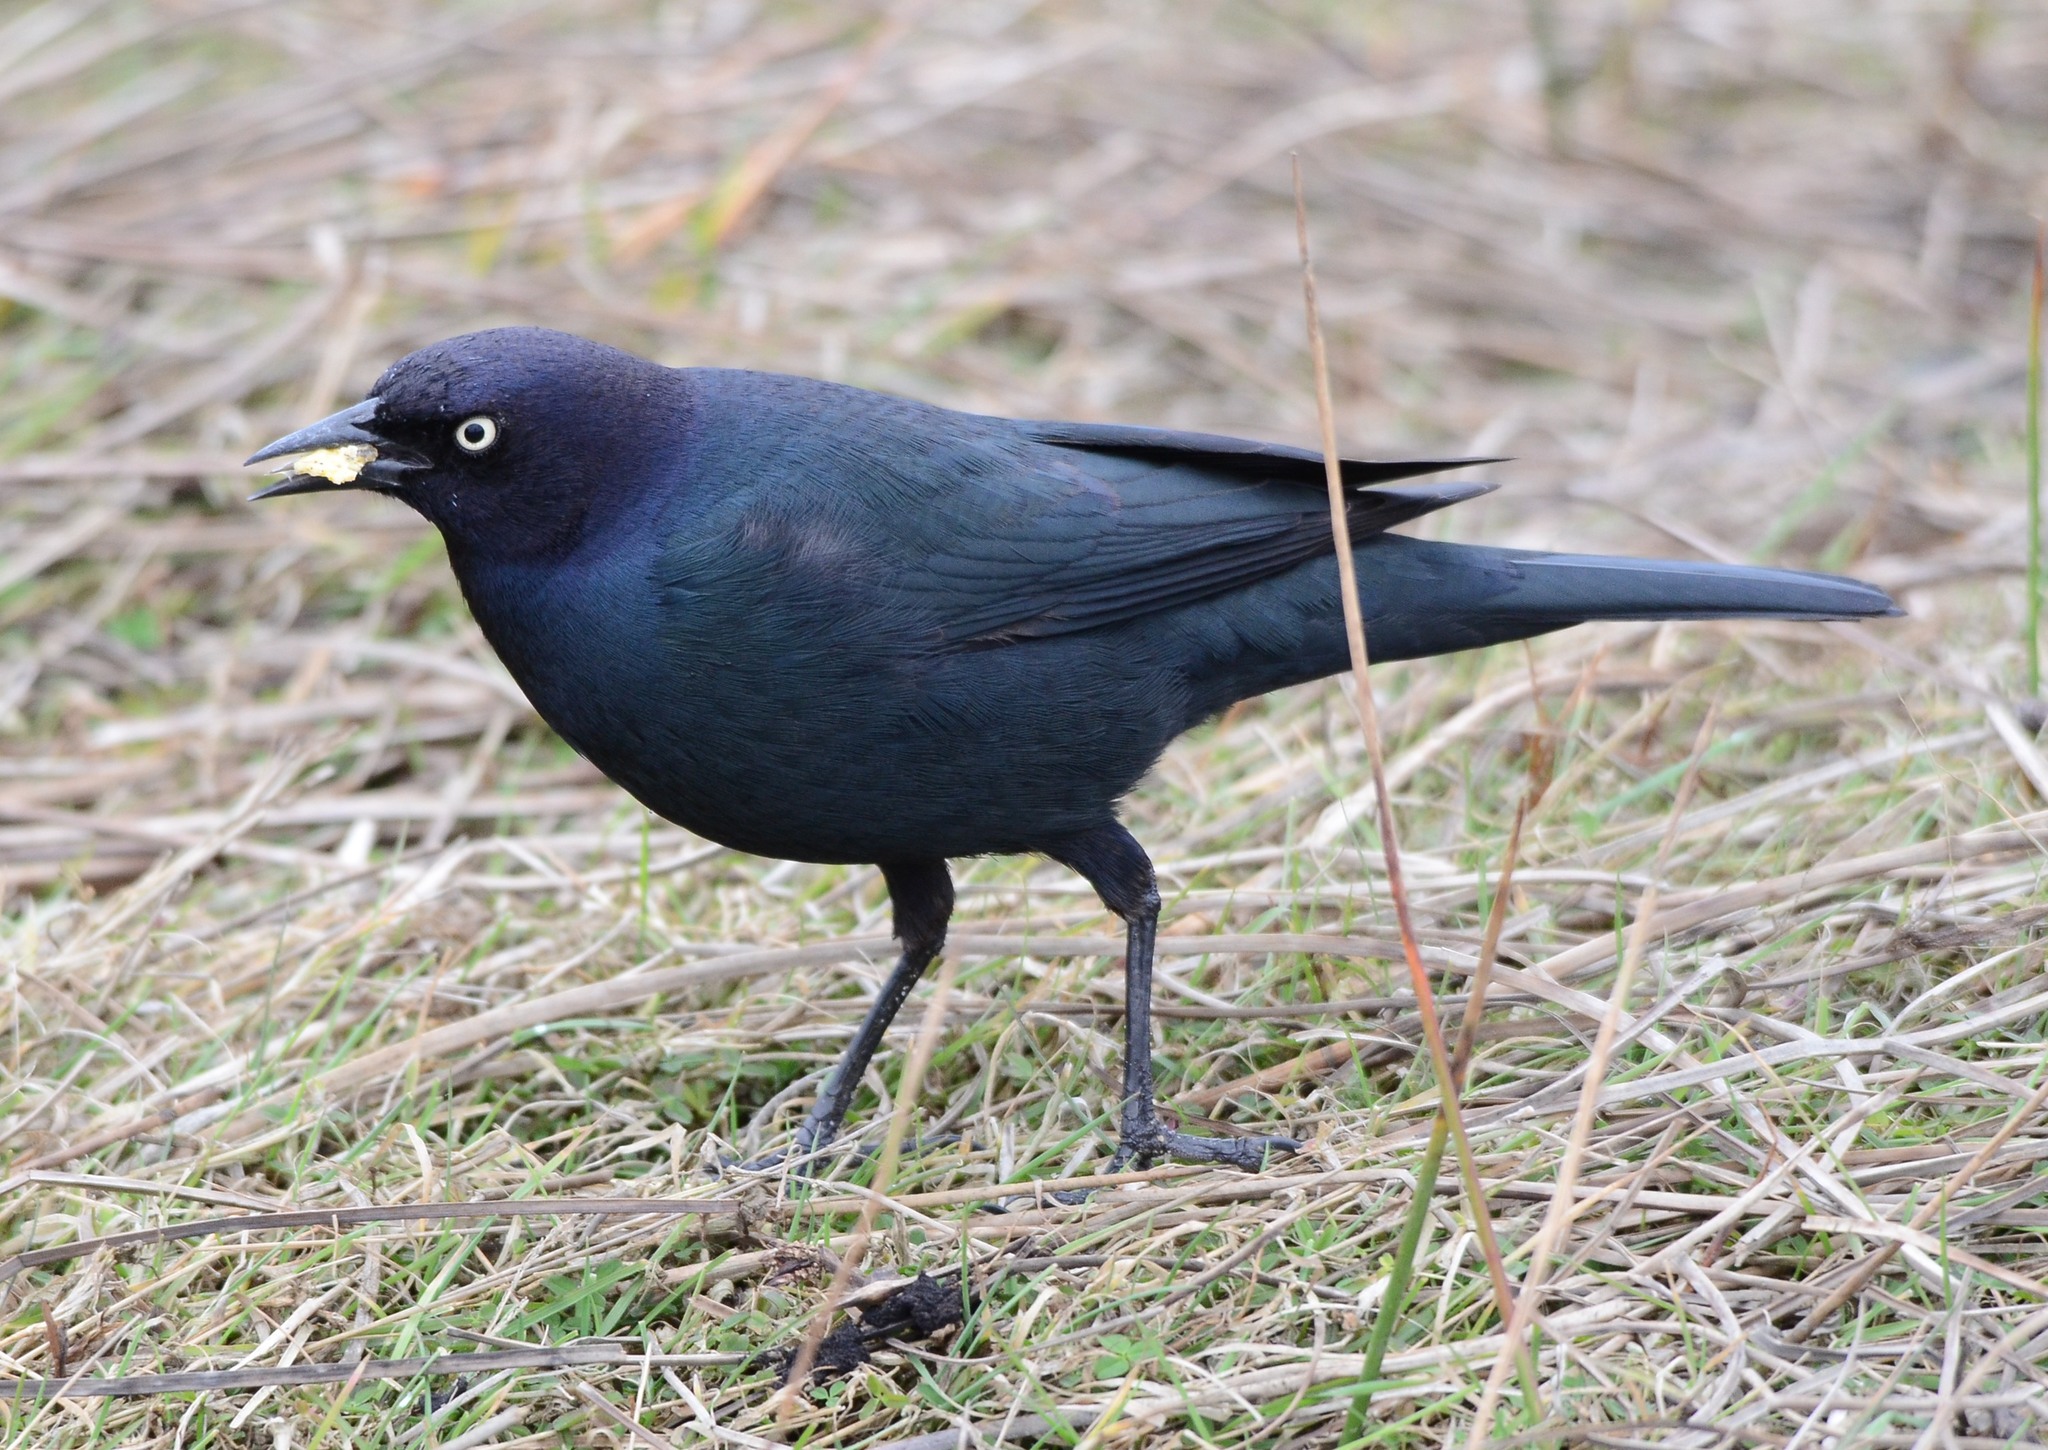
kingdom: Animalia
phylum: Chordata
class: Aves
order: Passeriformes
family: Icteridae
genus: Euphagus
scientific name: Euphagus cyanocephalus
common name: Brewer's blackbird
